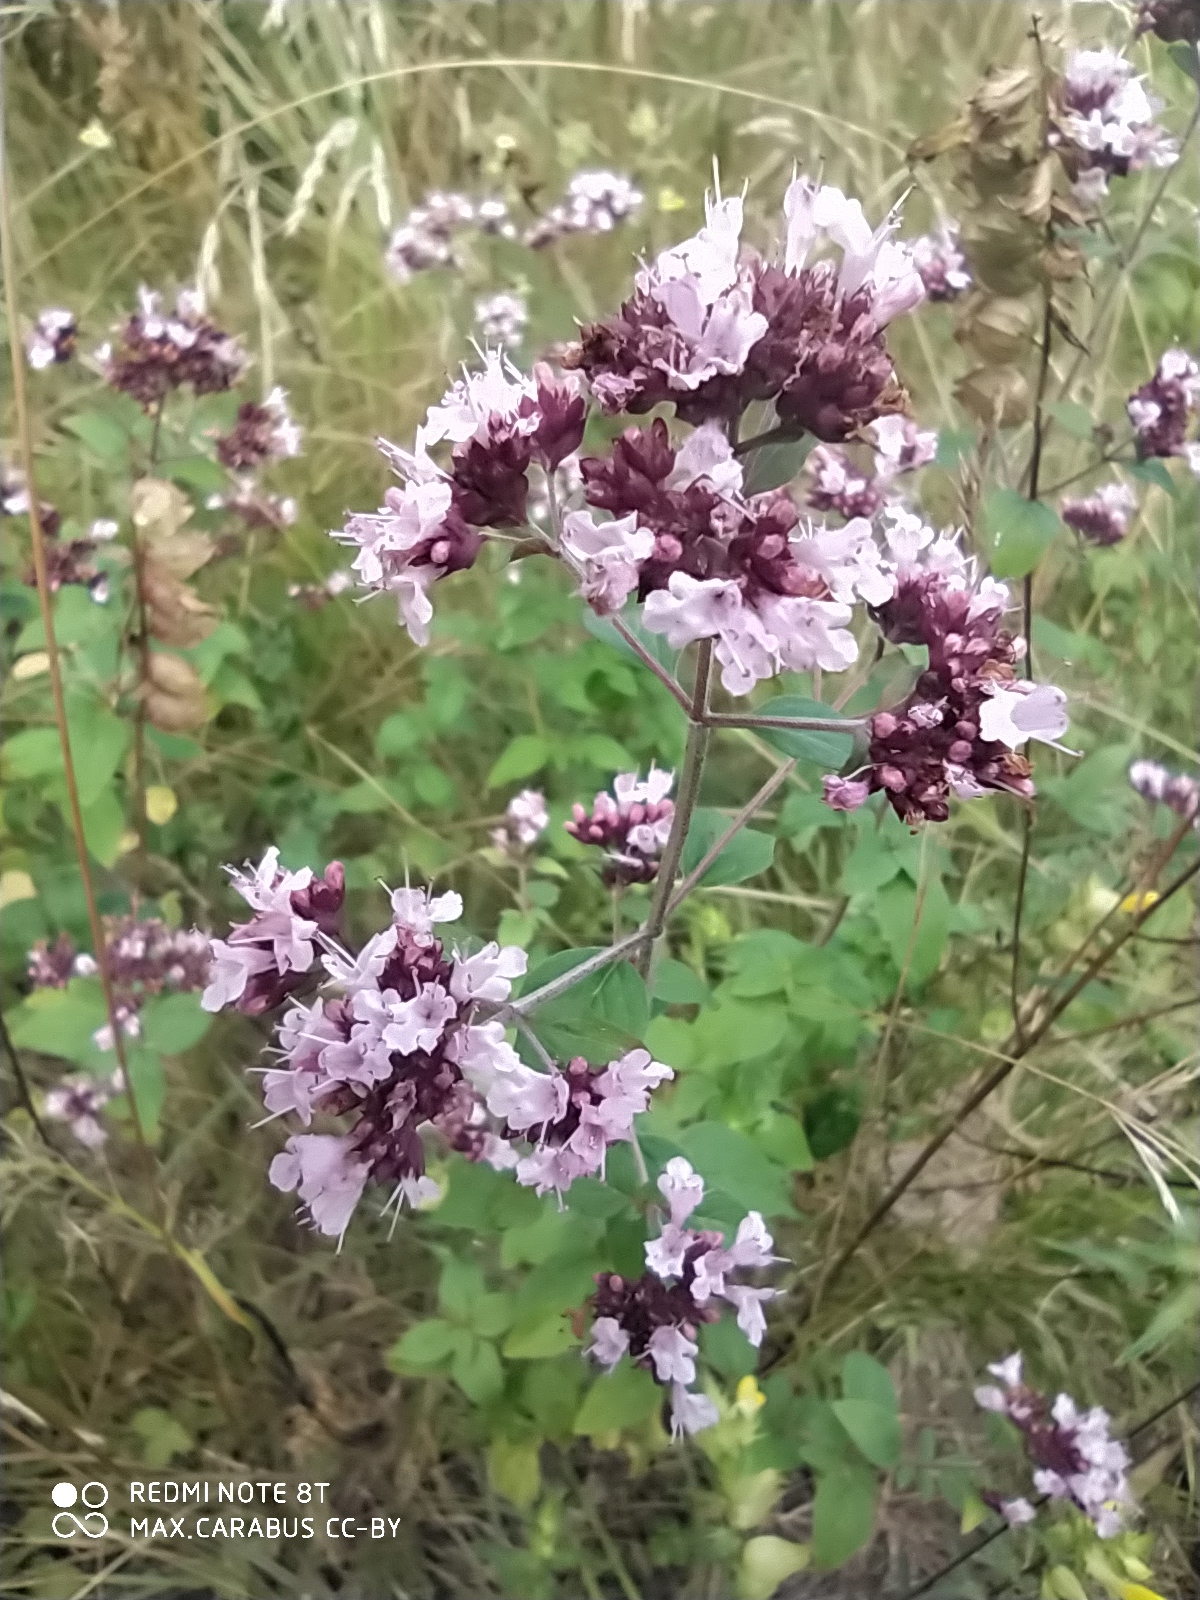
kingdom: Plantae
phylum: Tracheophyta
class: Magnoliopsida
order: Lamiales
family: Lamiaceae
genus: Origanum
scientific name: Origanum vulgare
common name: Wild marjoram
